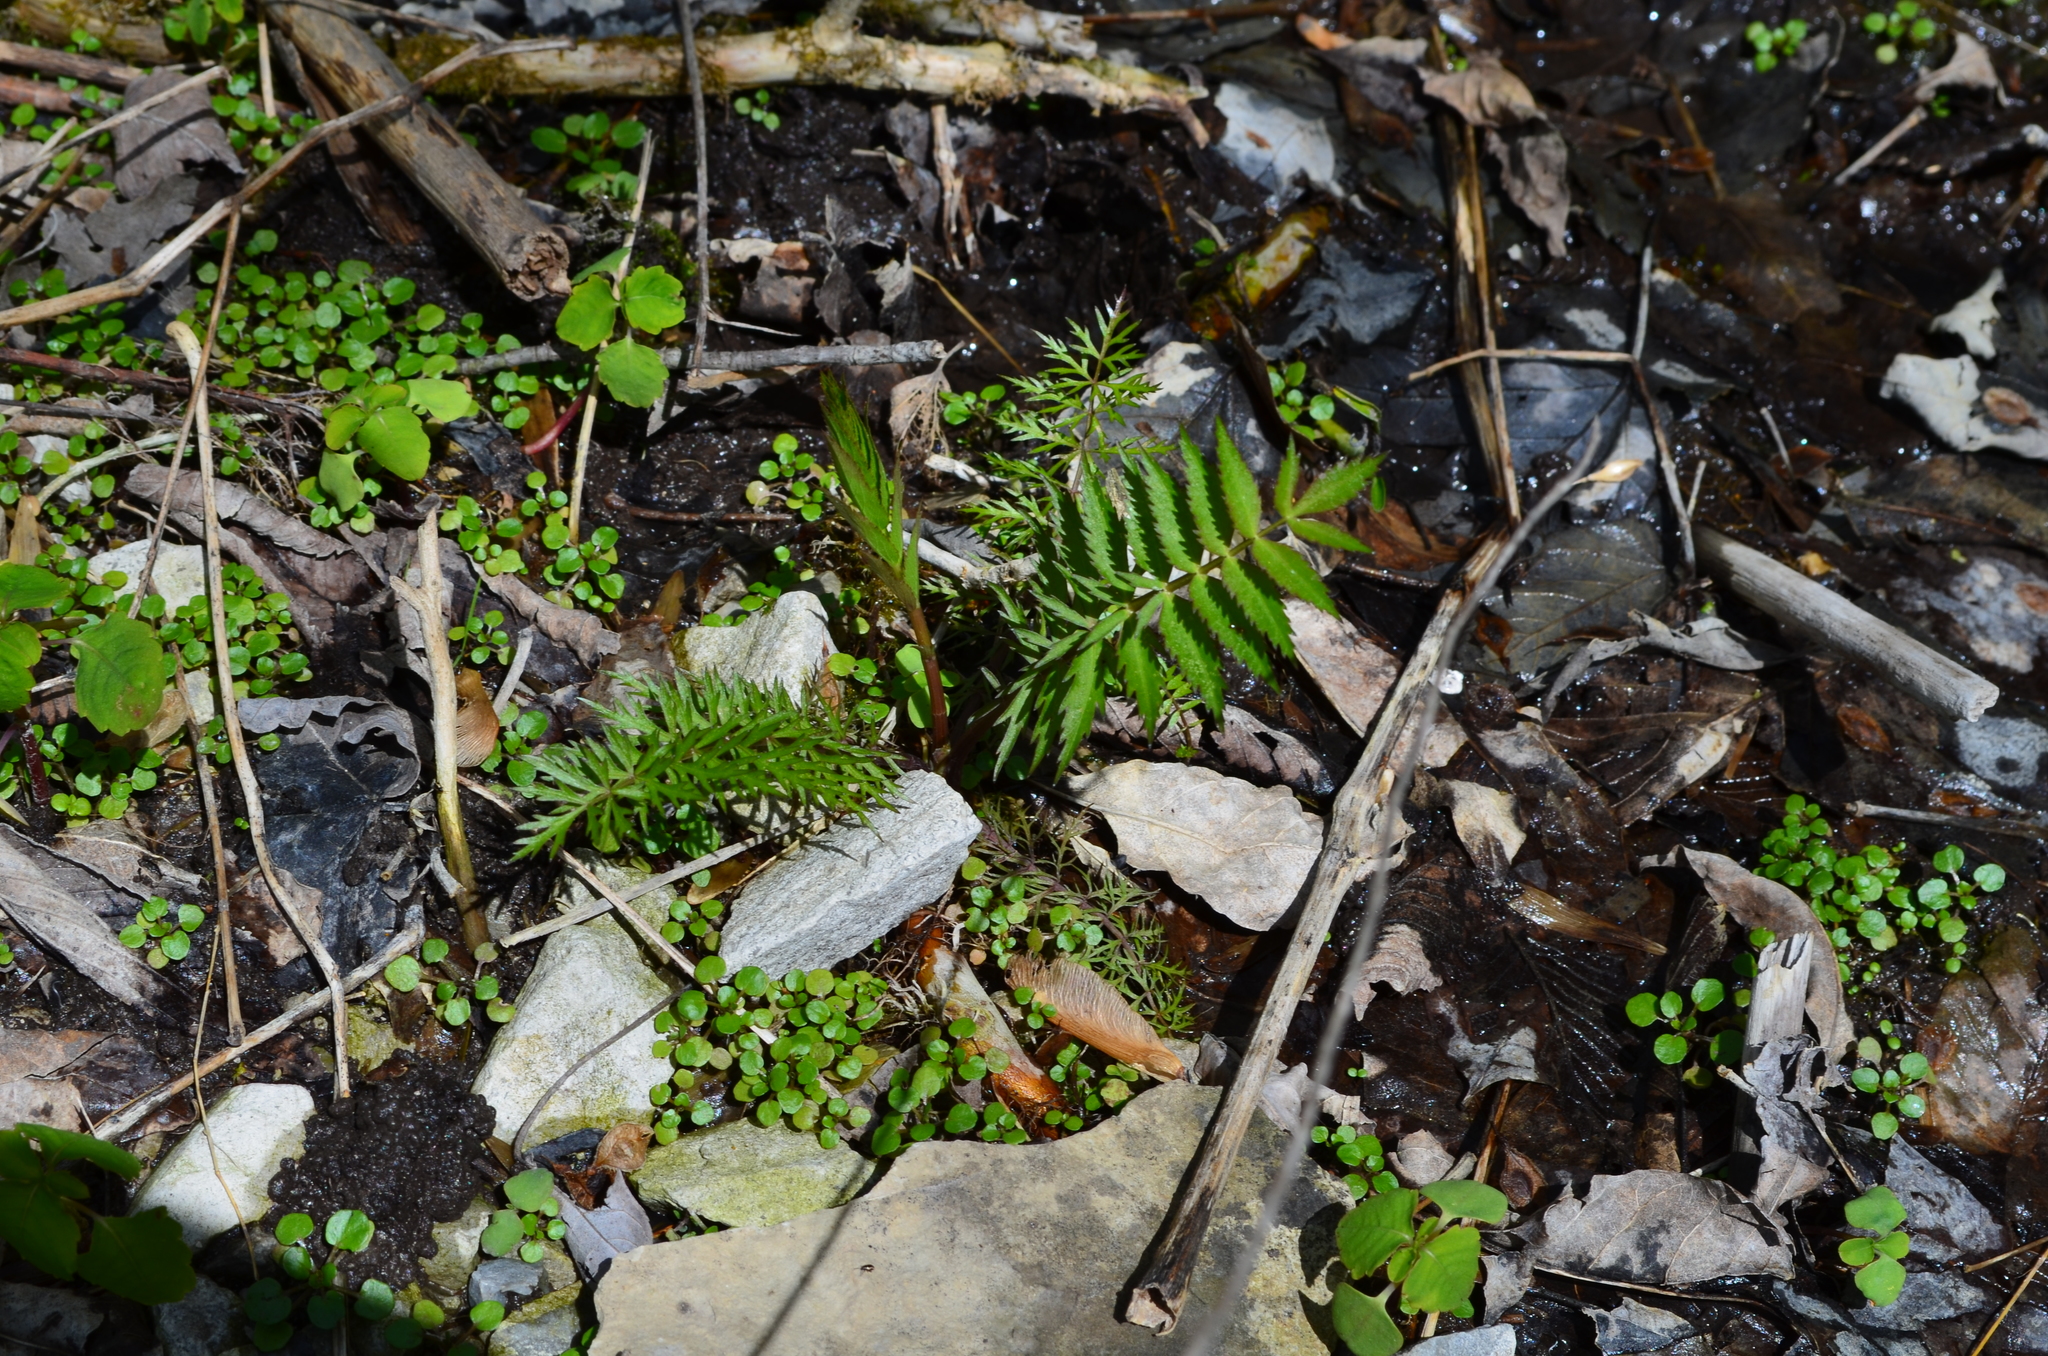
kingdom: Plantae
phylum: Tracheophyta
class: Magnoliopsida
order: Apiales
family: Apiaceae
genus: Sium
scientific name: Sium suave
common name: Hemlock water-parsnip
